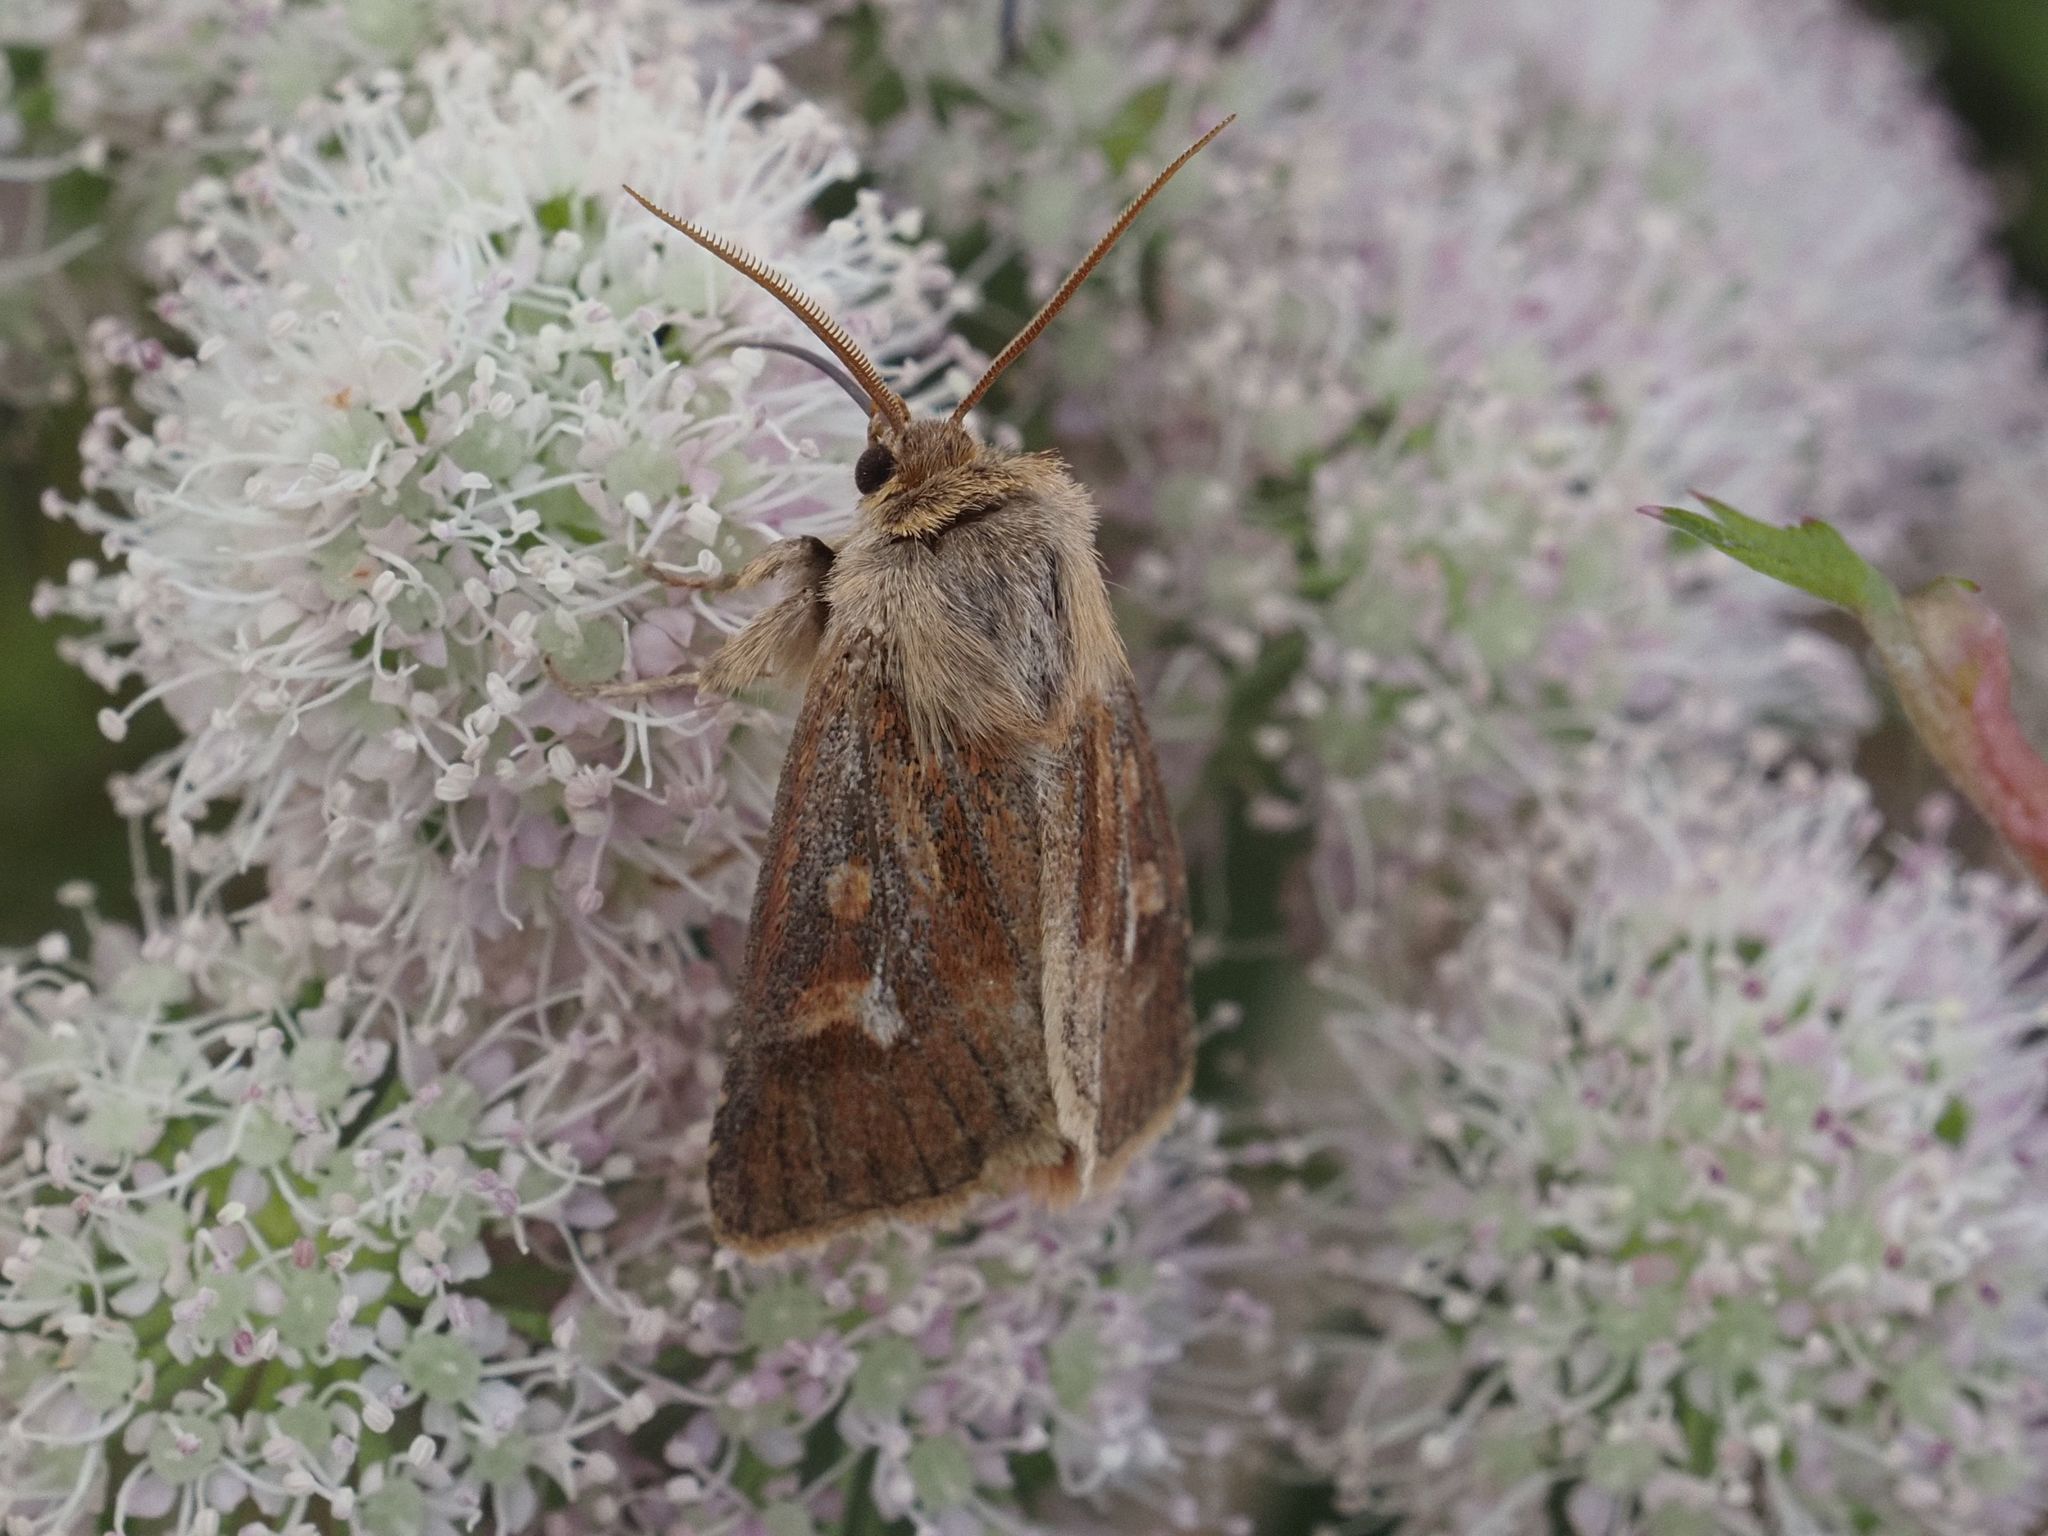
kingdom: Animalia
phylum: Arthropoda
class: Insecta
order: Lepidoptera
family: Noctuidae
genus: Cerapteryx
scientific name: Cerapteryx graminis
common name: Antler moth
